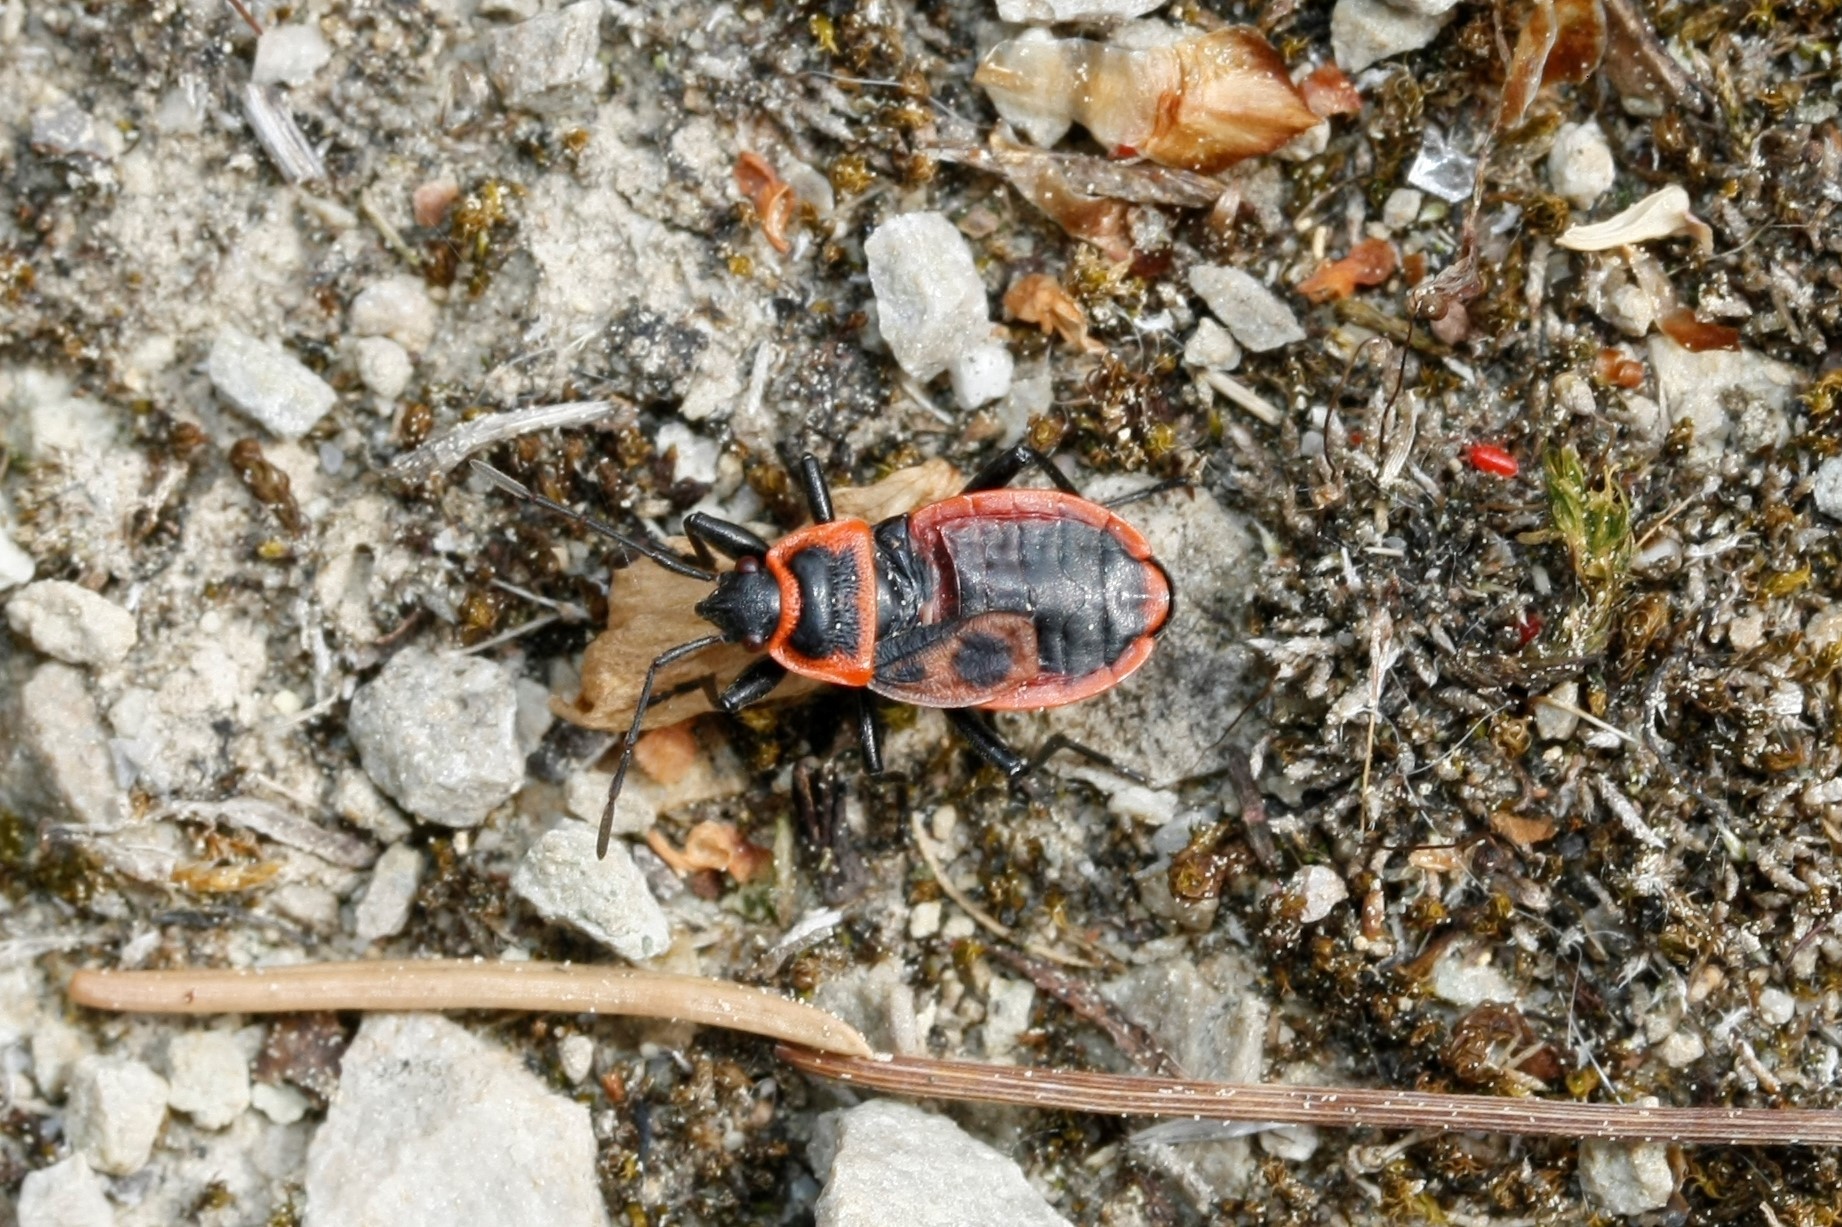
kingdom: Animalia
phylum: Arthropoda
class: Insecta
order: Hemiptera
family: Pyrrhocoridae
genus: Pyrrhocoris
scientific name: Pyrrhocoris apterus
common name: Firebug
